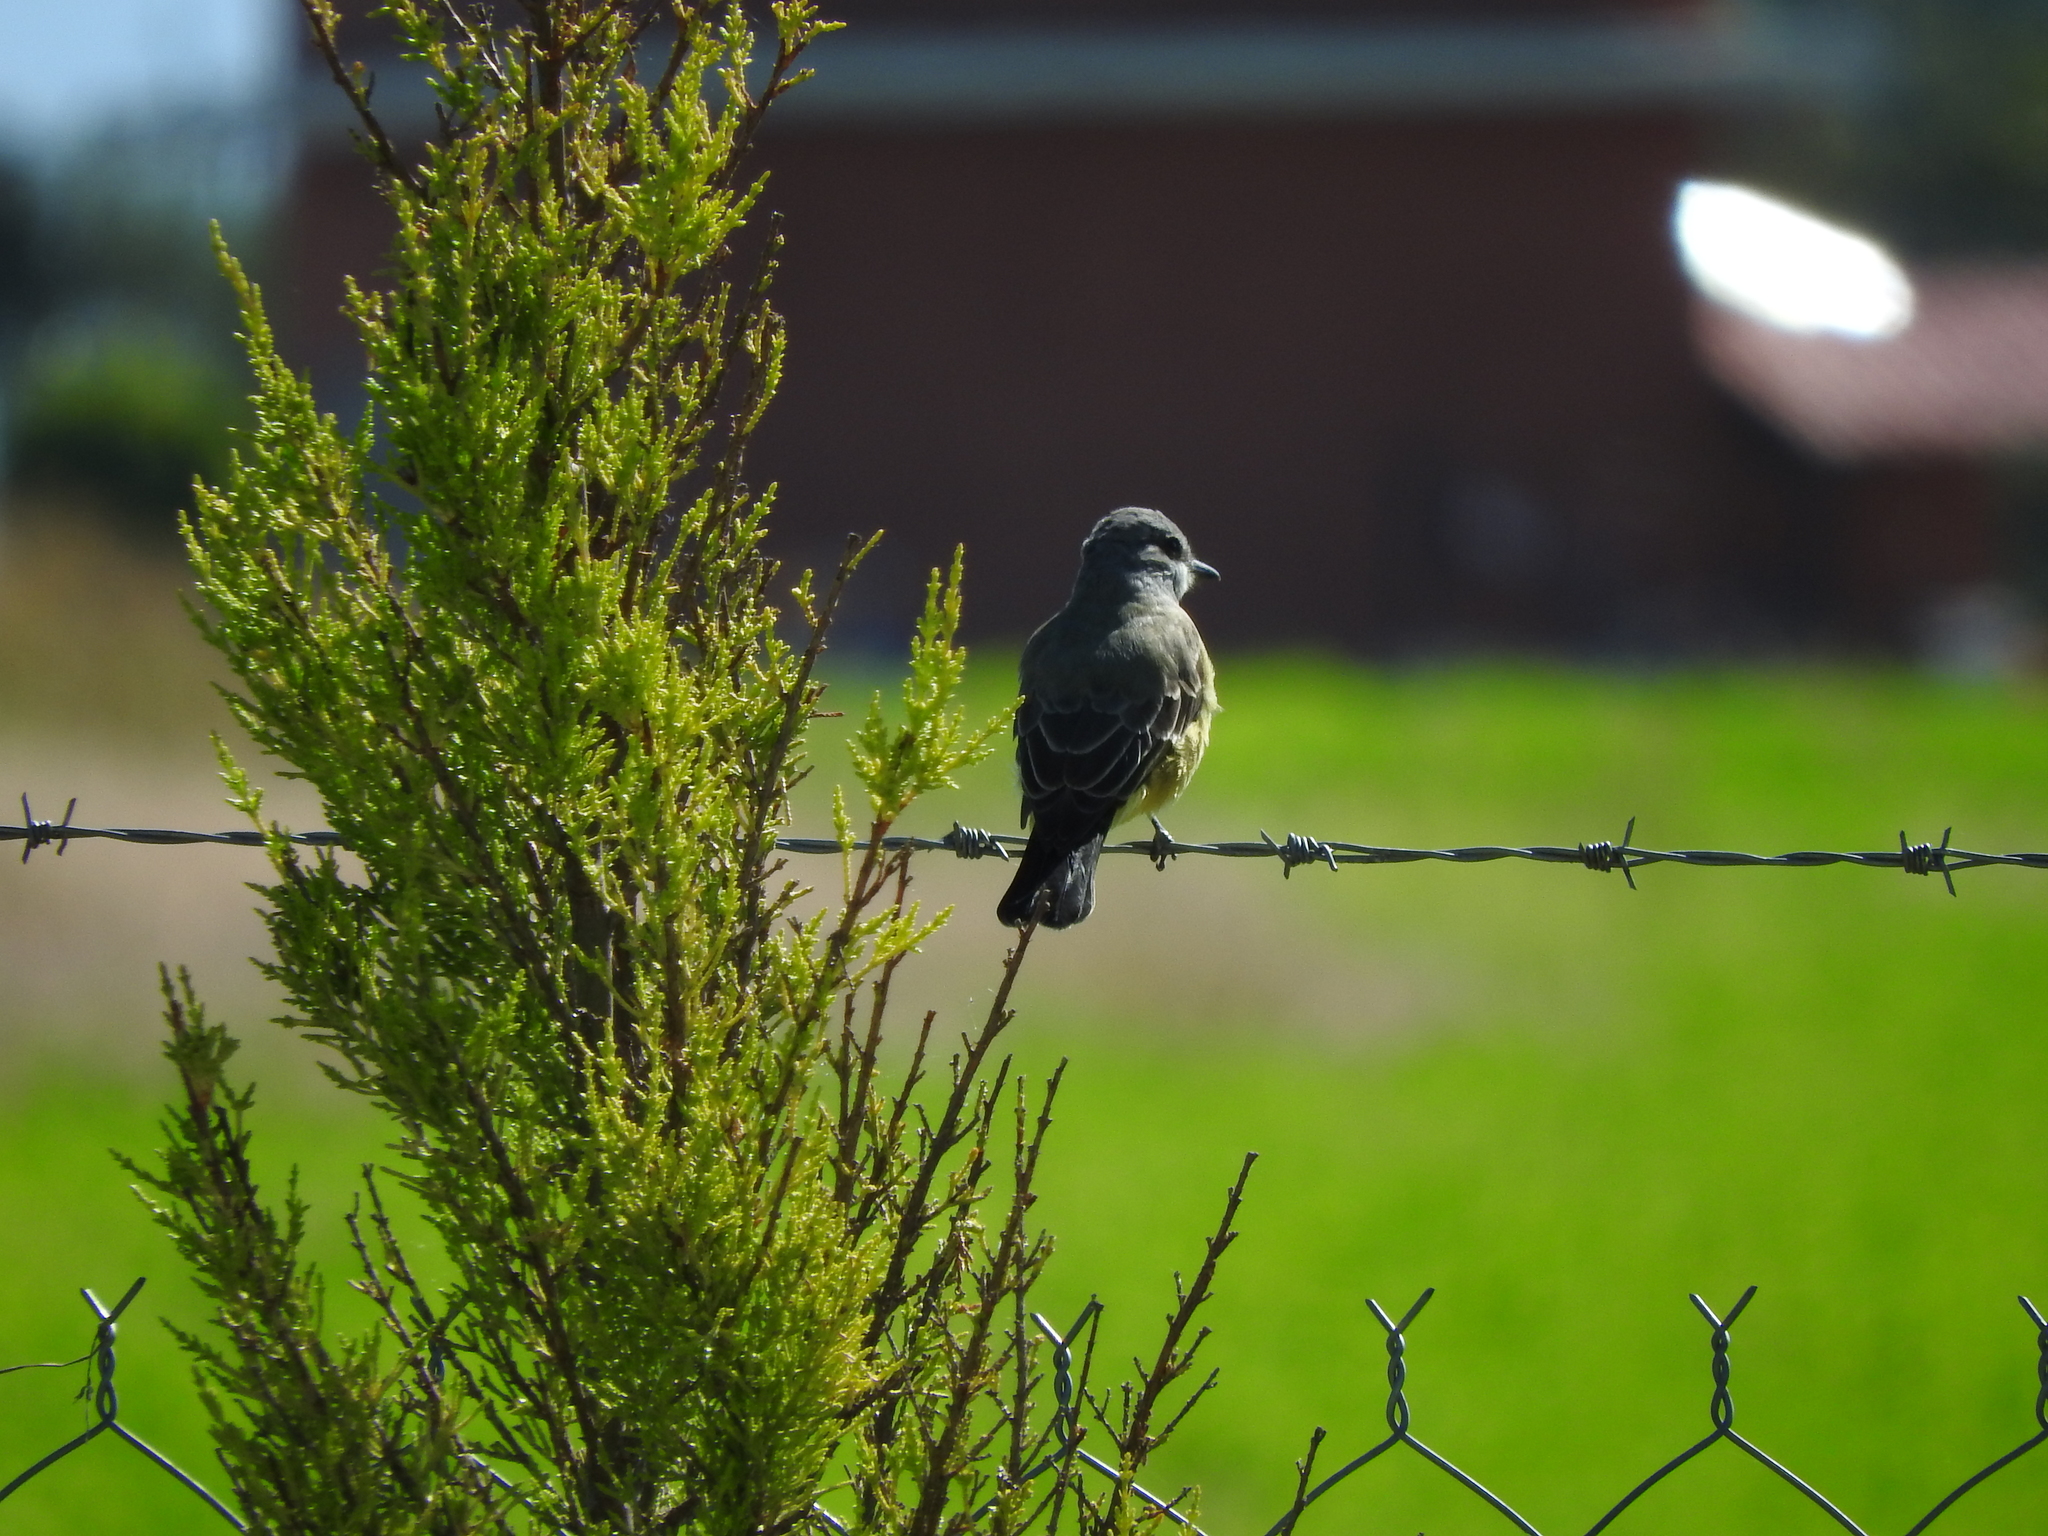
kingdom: Animalia
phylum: Chordata
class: Aves
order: Passeriformes
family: Tyrannidae
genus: Tyrannus
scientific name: Tyrannus vociferans
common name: Cassin's kingbird
